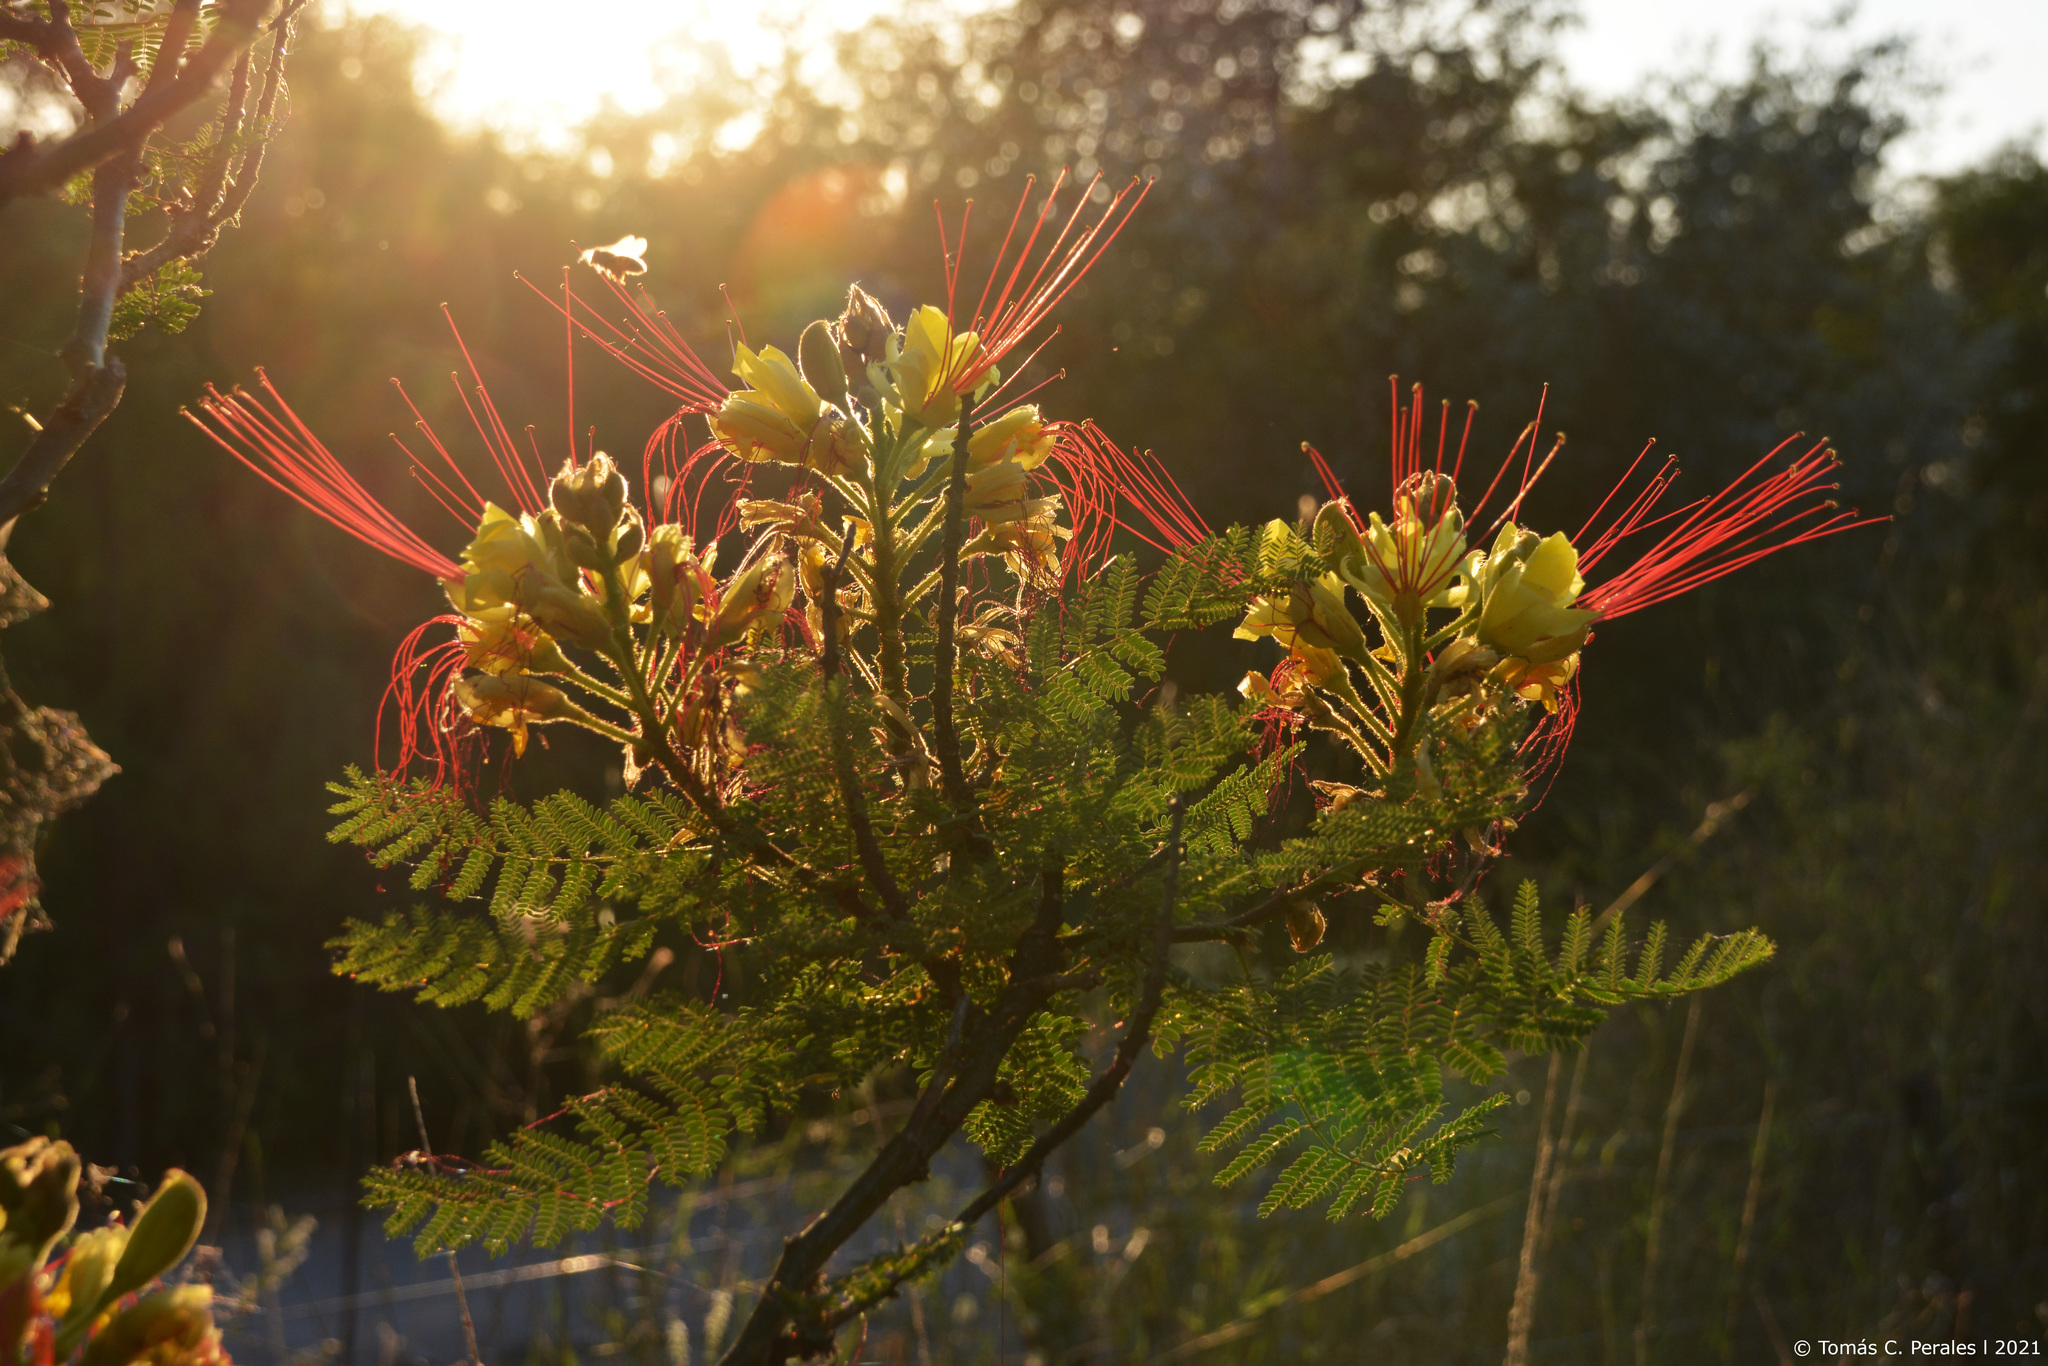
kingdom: Plantae
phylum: Tracheophyta
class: Magnoliopsida
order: Fabales
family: Fabaceae
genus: Erythrostemon
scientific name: Erythrostemon gilliesii
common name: Bird-of-paradise shrub
